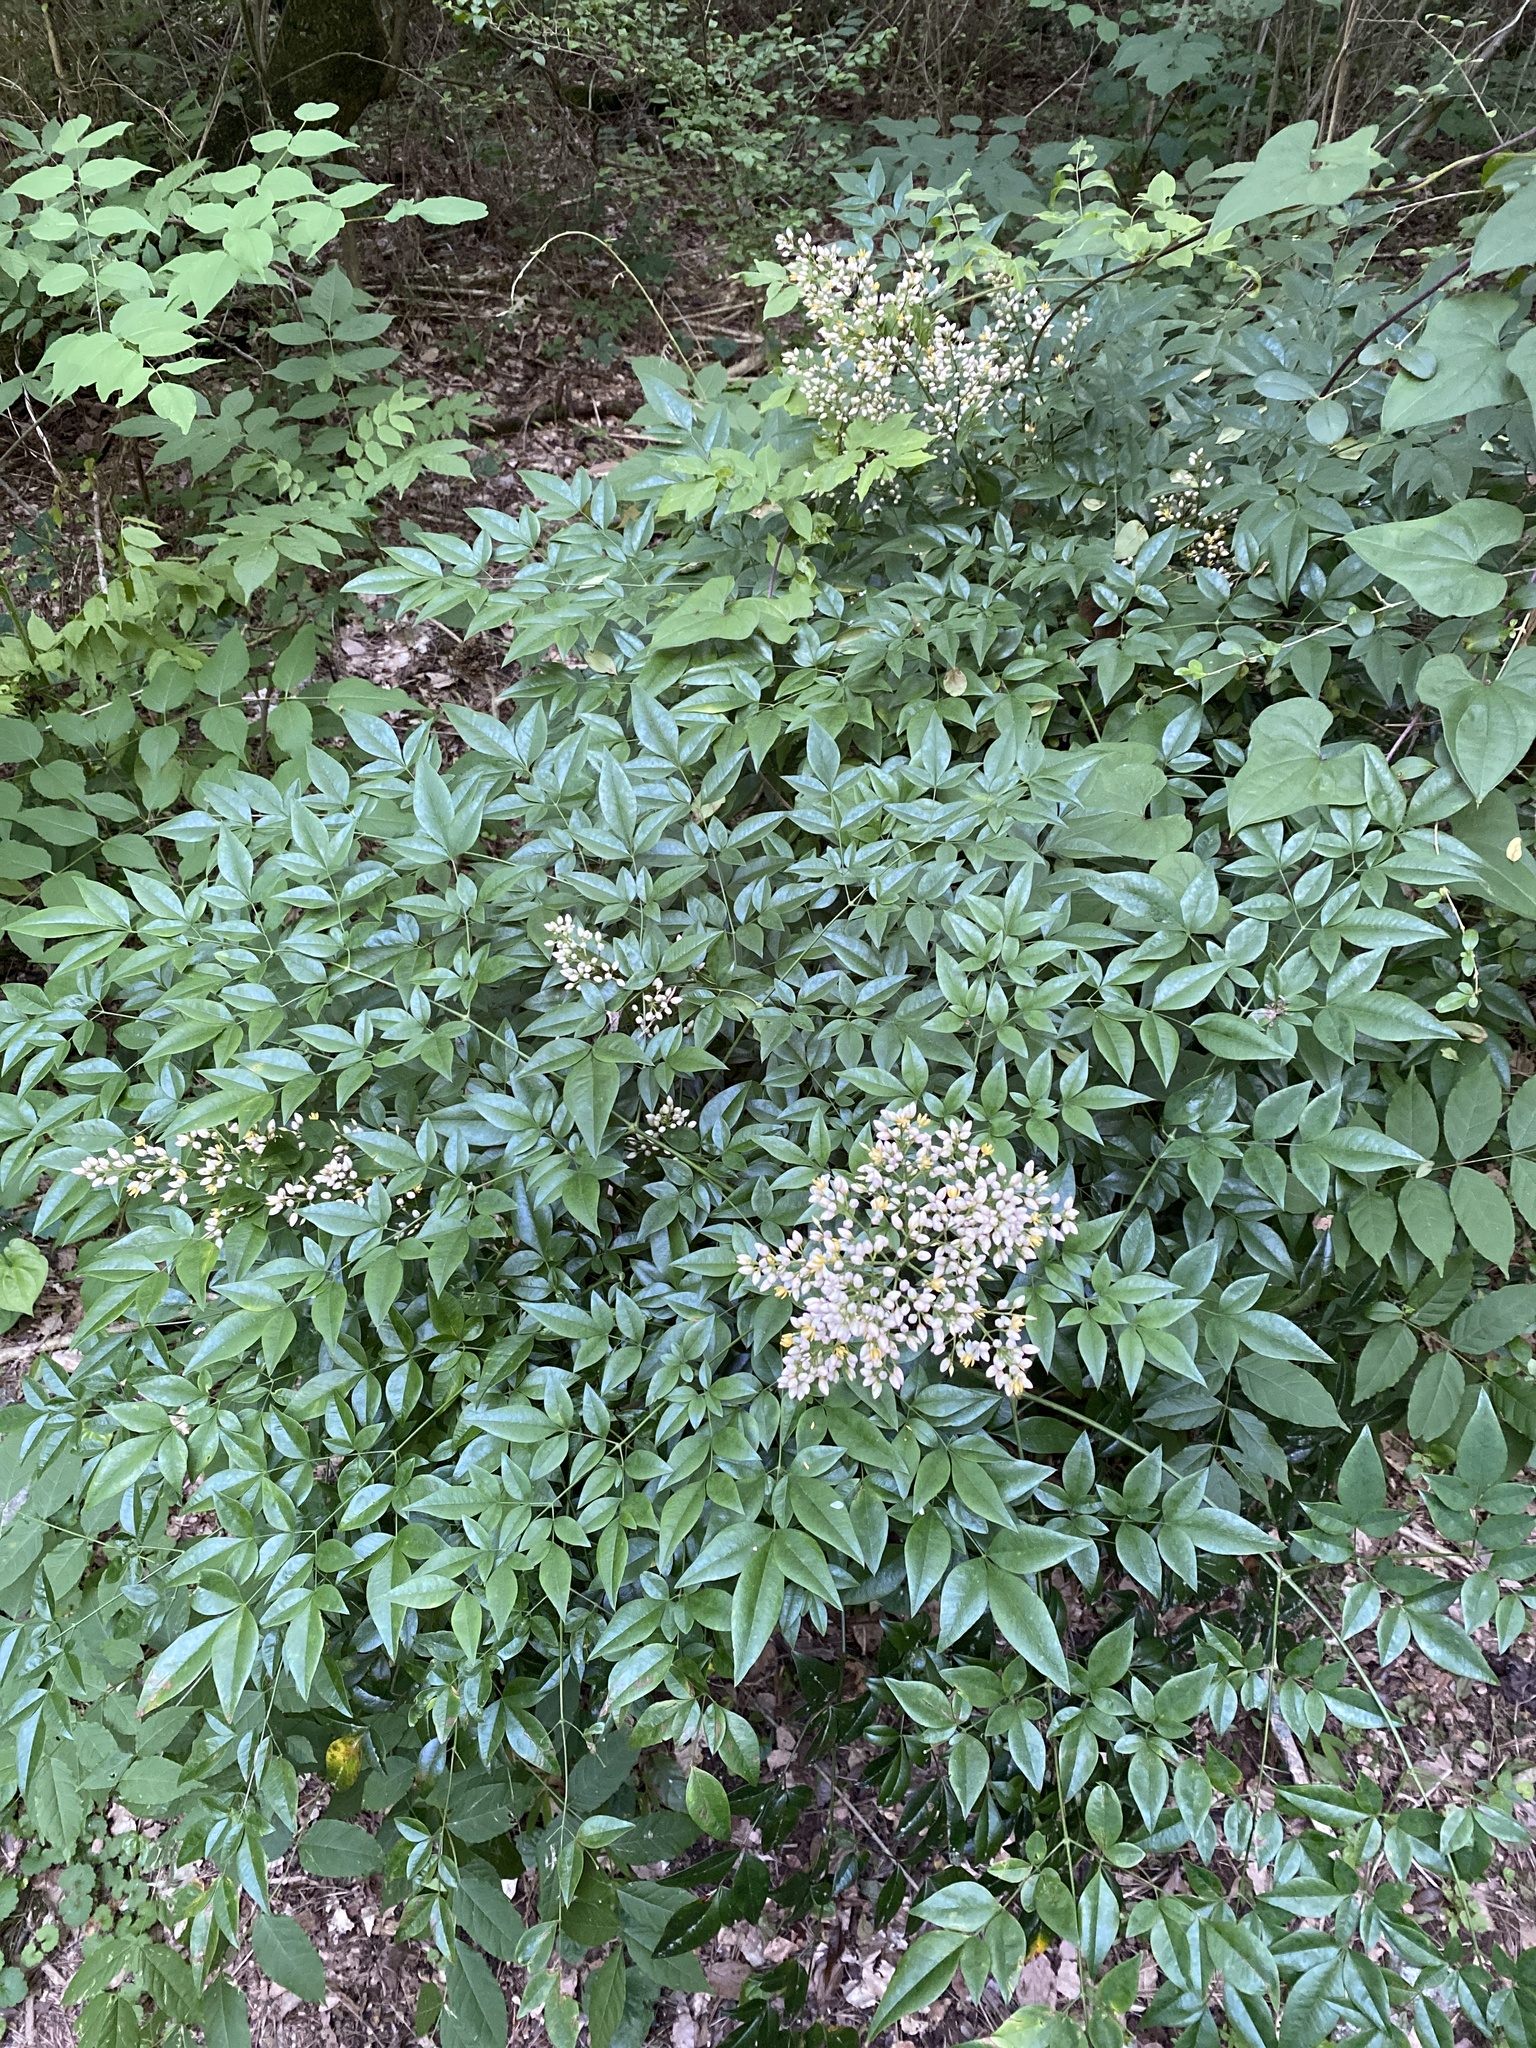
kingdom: Plantae
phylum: Tracheophyta
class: Magnoliopsida
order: Ranunculales
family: Berberidaceae
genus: Nandina
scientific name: Nandina domestica
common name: Sacred bamboo
